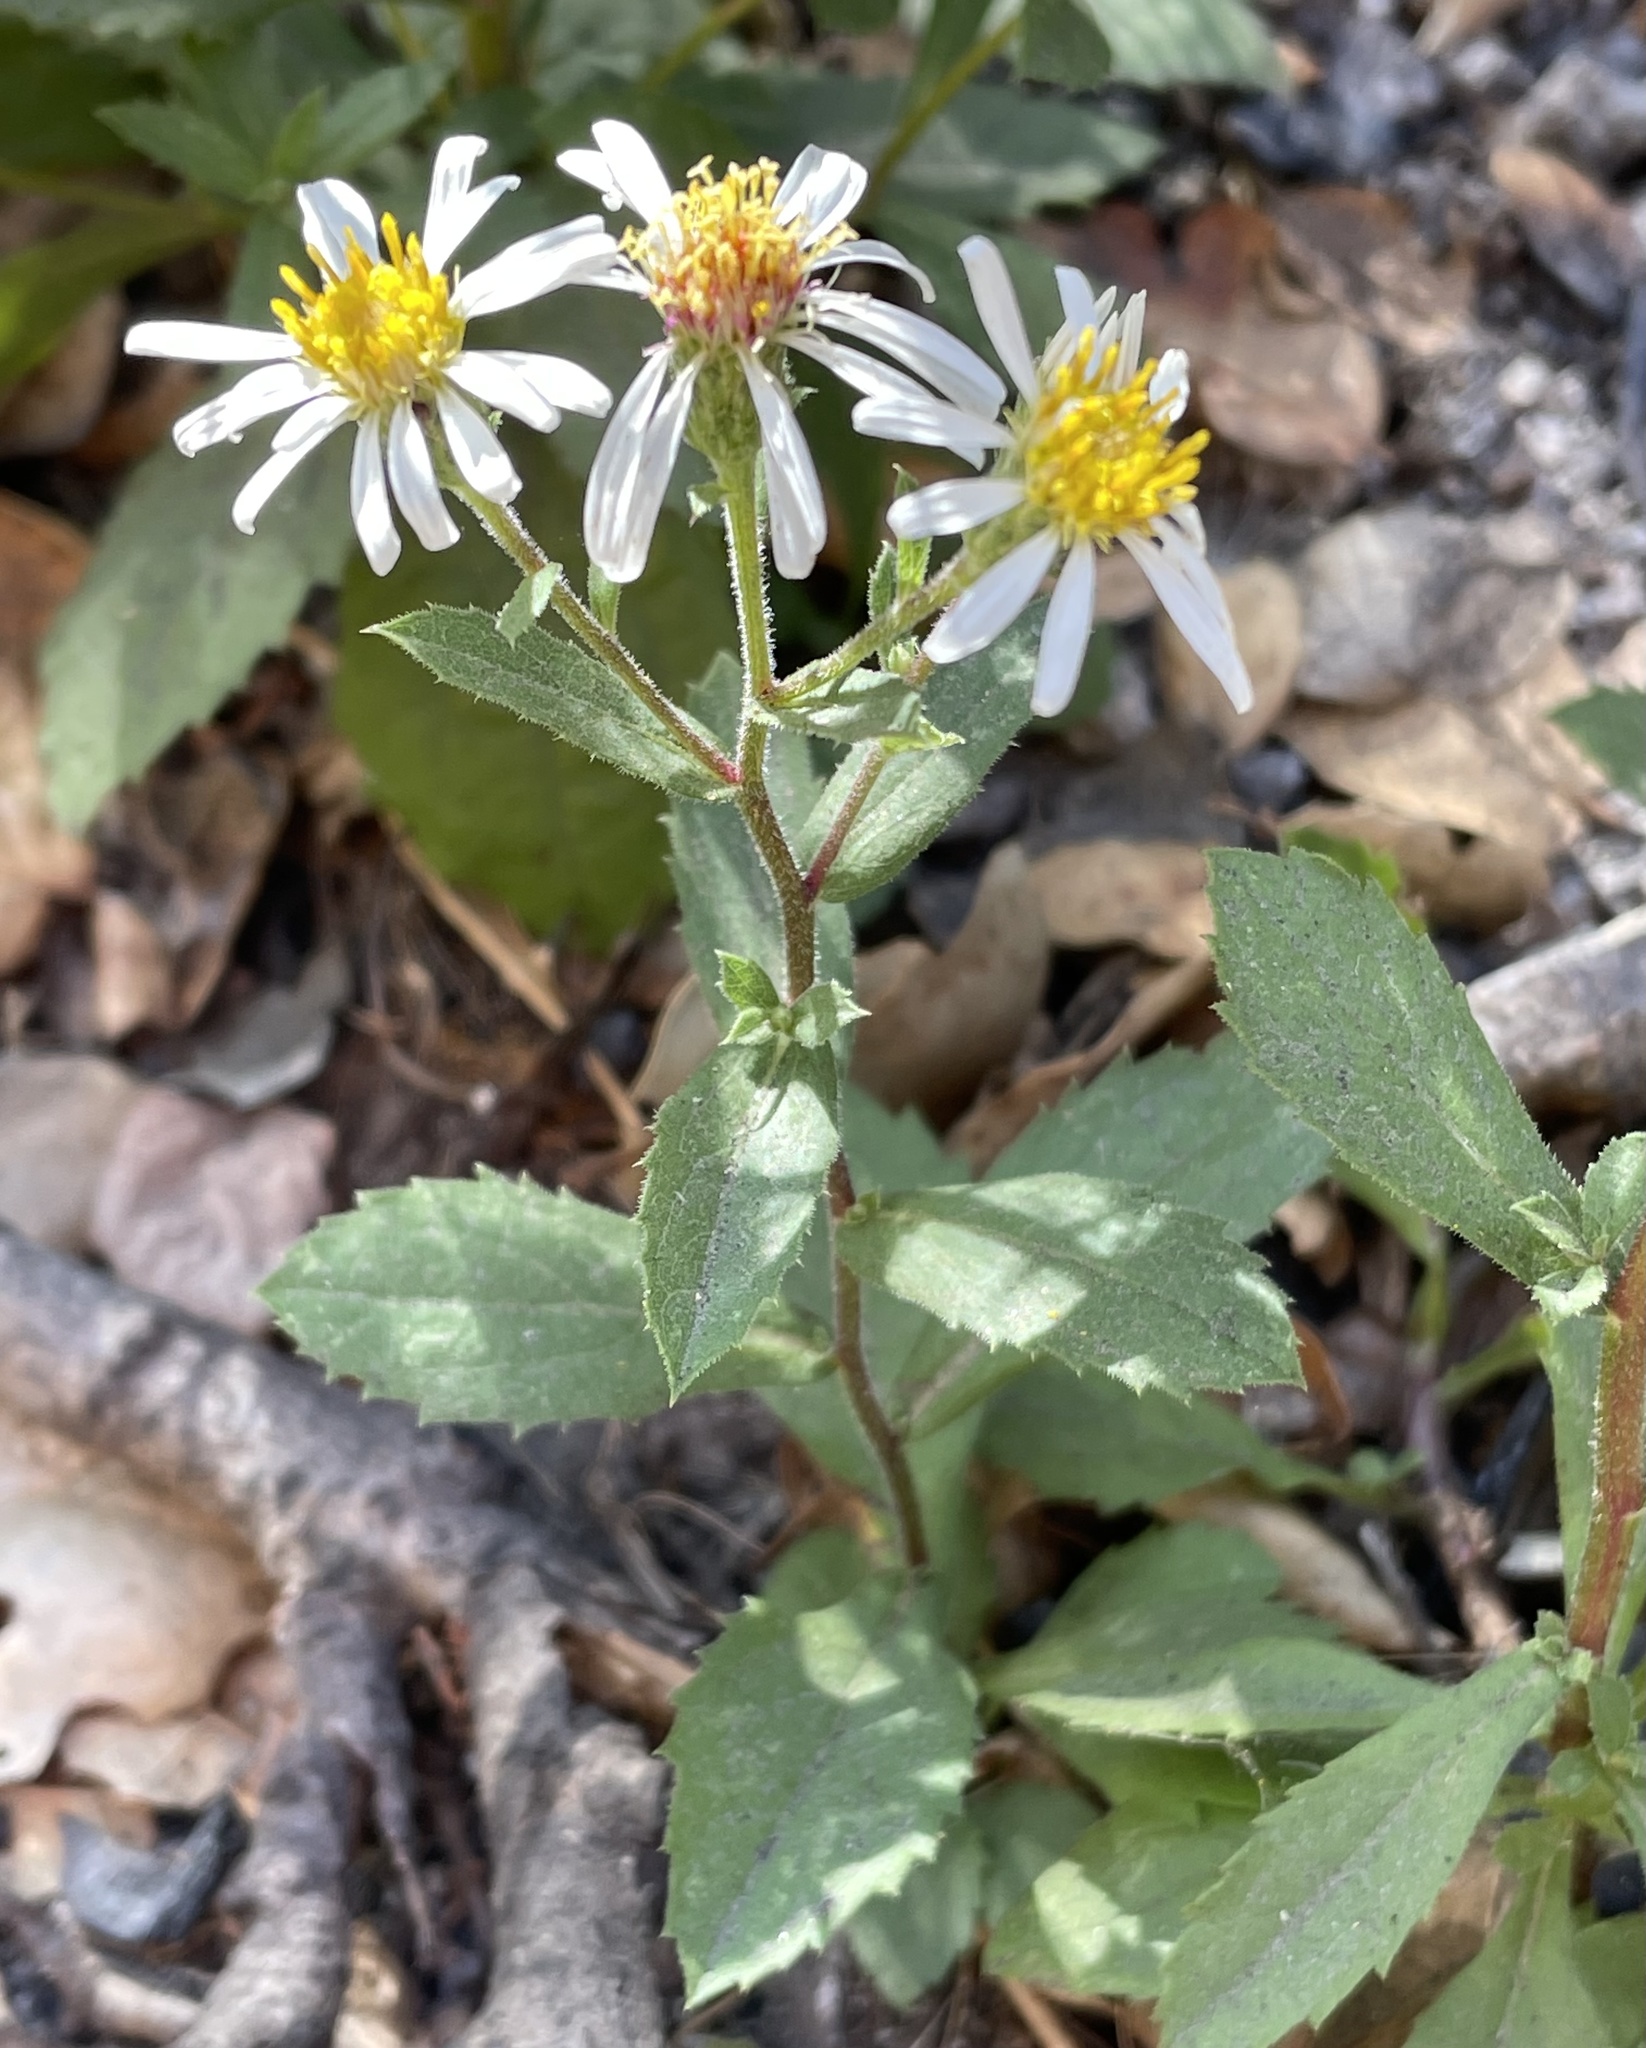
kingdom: Plantae
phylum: Tracheophyta
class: Magnoliopsida
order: Asterales
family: Asteraceae
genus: Eurybia
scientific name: Eurybia radulina
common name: Rough-leaved aster
